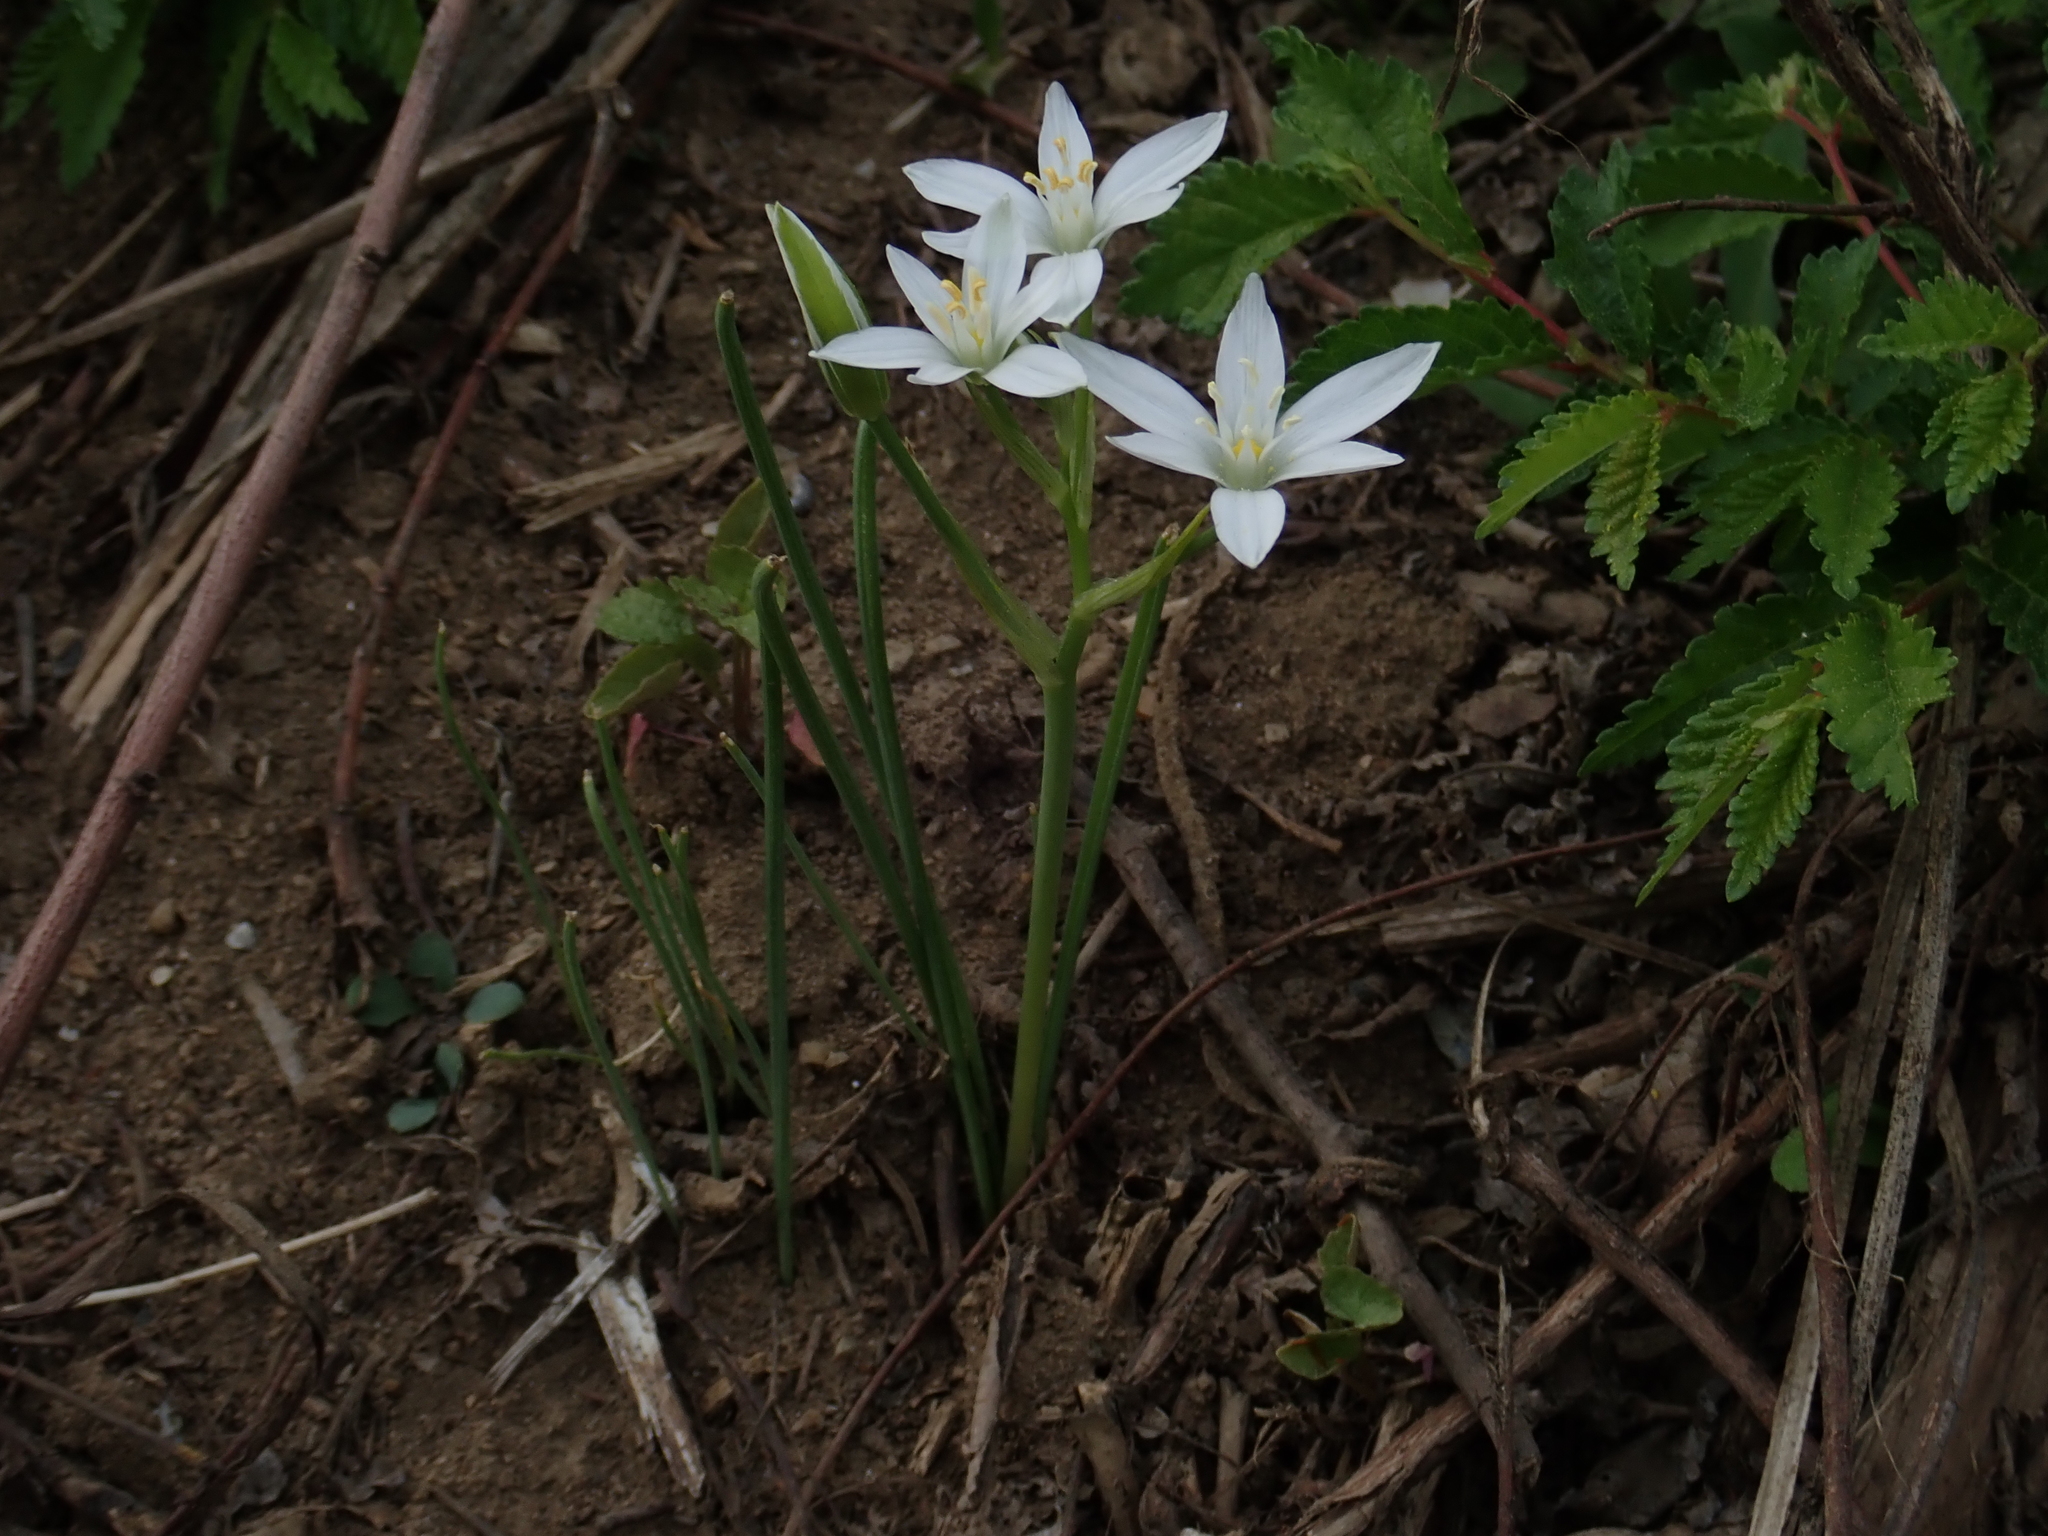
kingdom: Plantae
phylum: Tracheophyta
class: Liliopsida
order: Asparagales
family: Asparagaceae
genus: Ornithogalum
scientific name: Ornithogalum umbellatum
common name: Garden star-of-bethlehem
